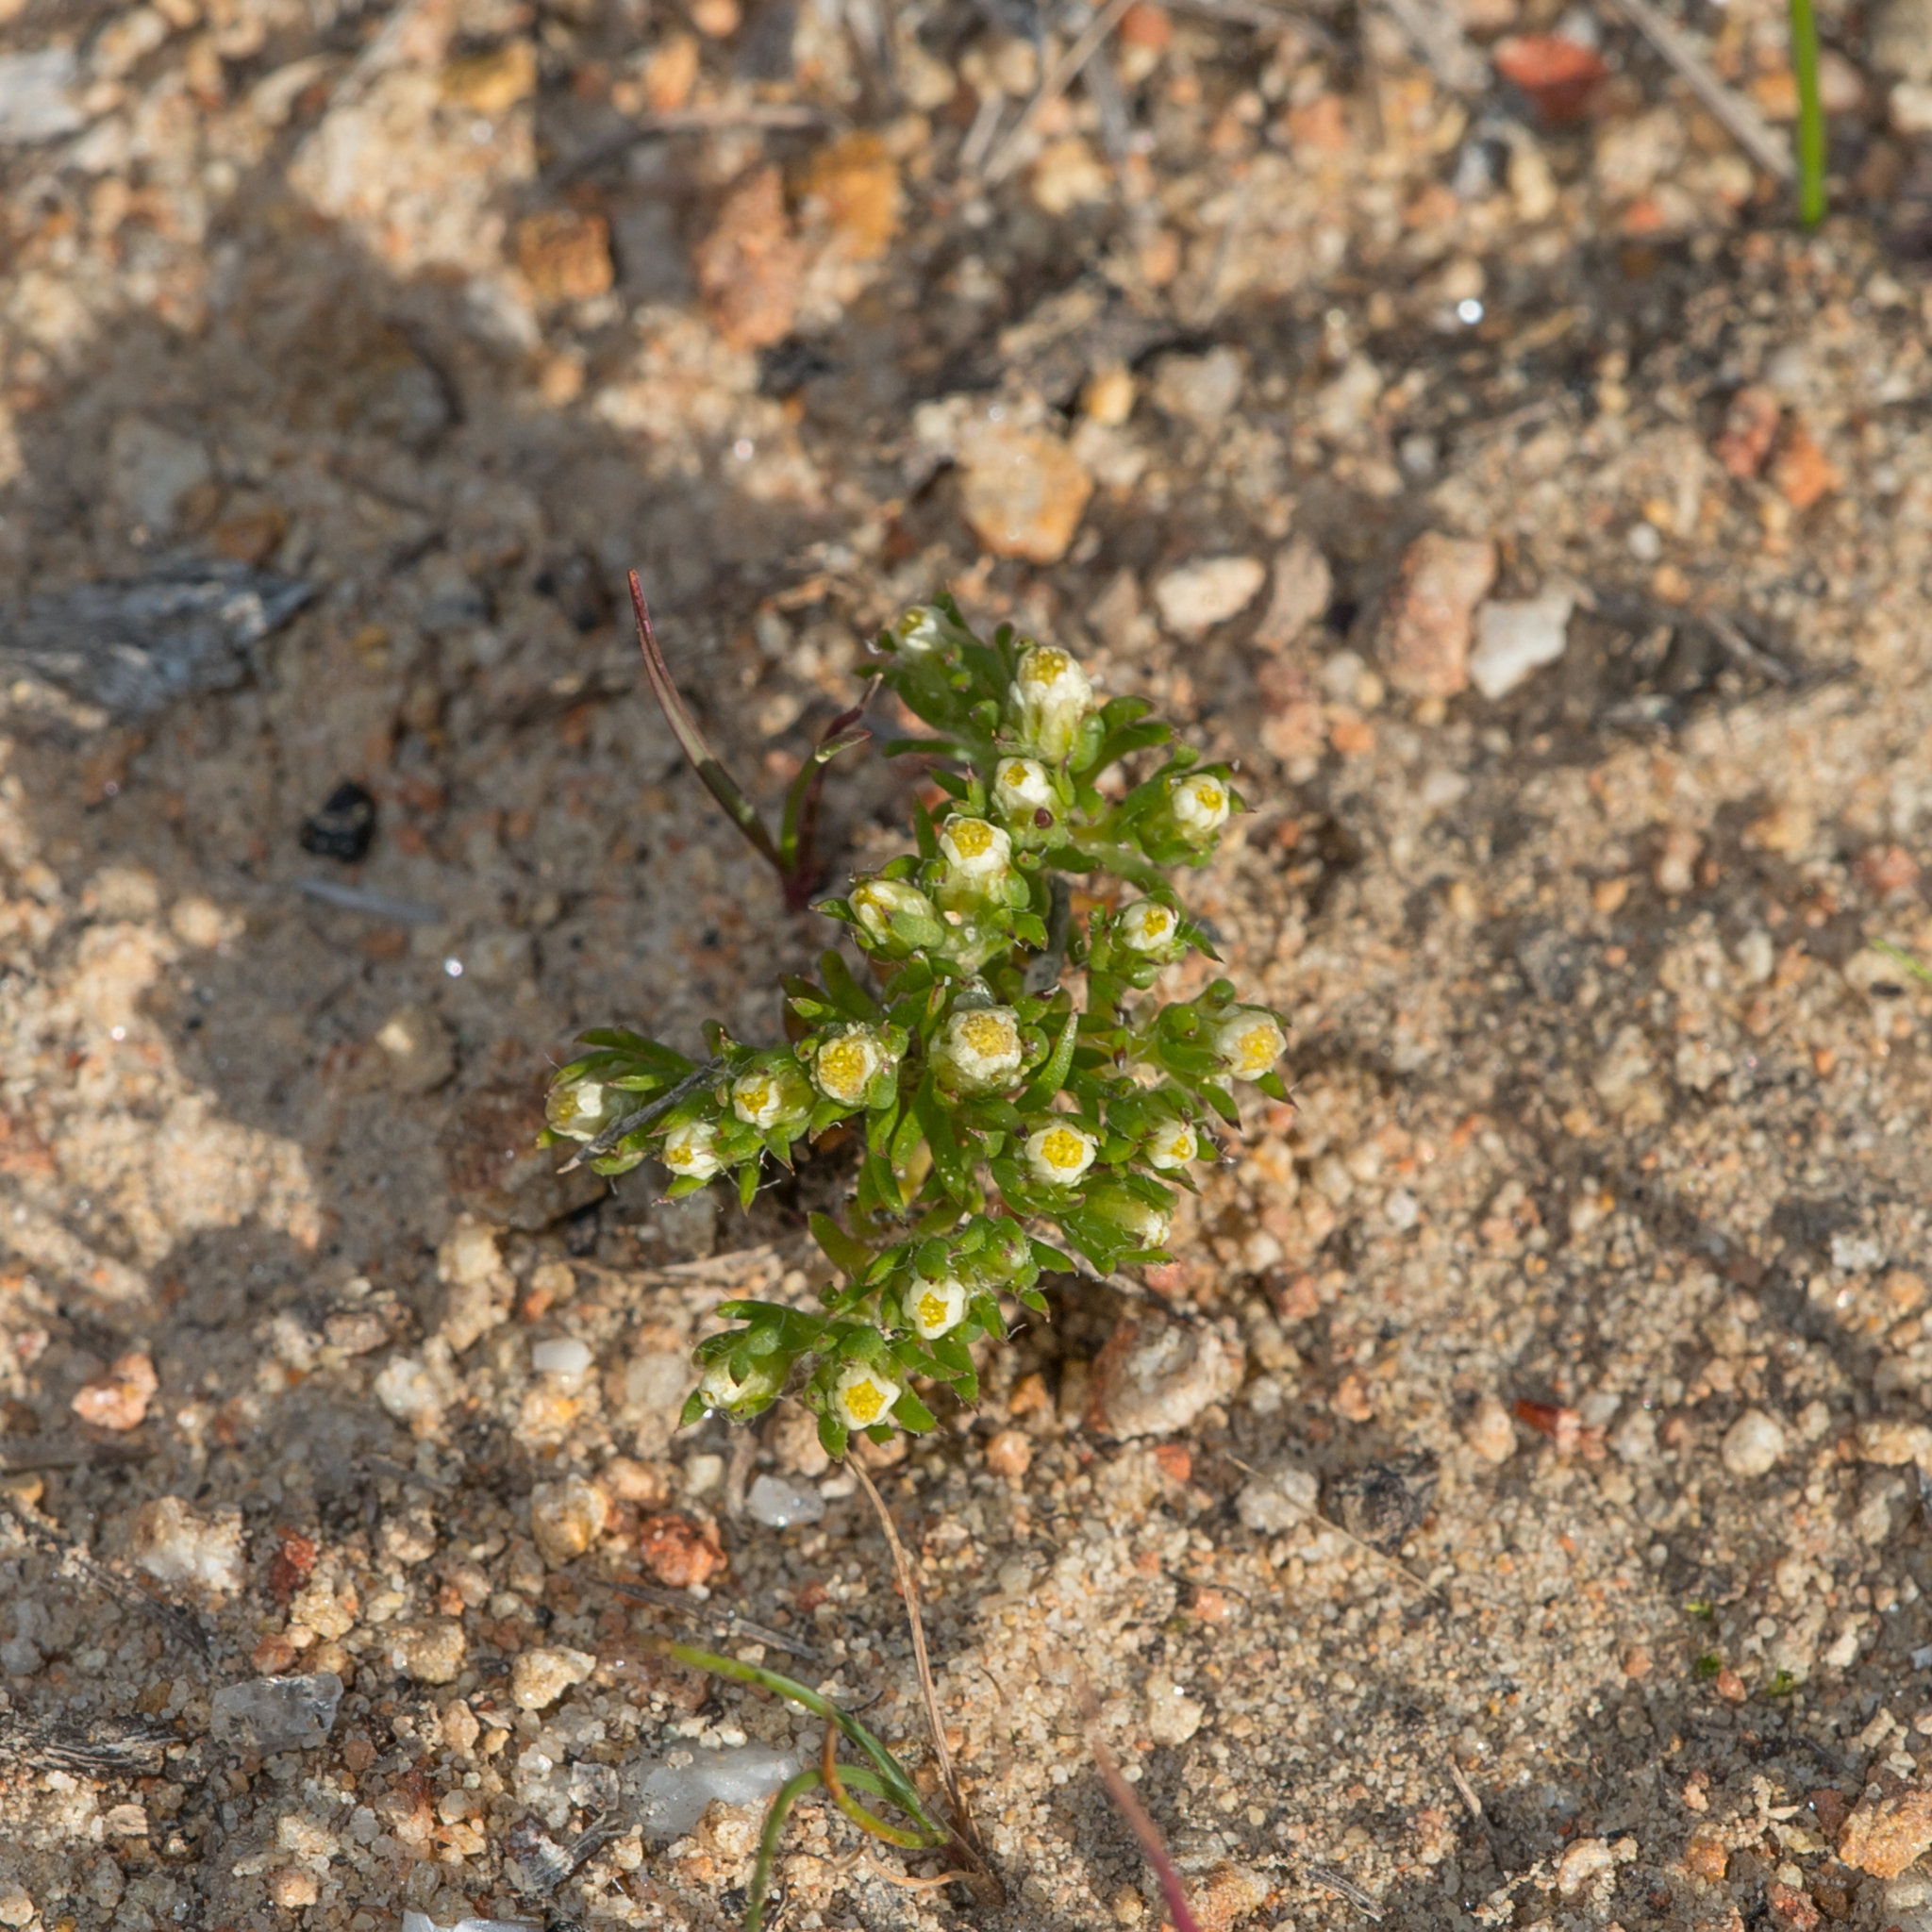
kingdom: Plantae
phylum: Tracheophyta
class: Magnoliopsida
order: Asterales
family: Asteraceae
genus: Hyalosperma
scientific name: Hyalosperma demissum
